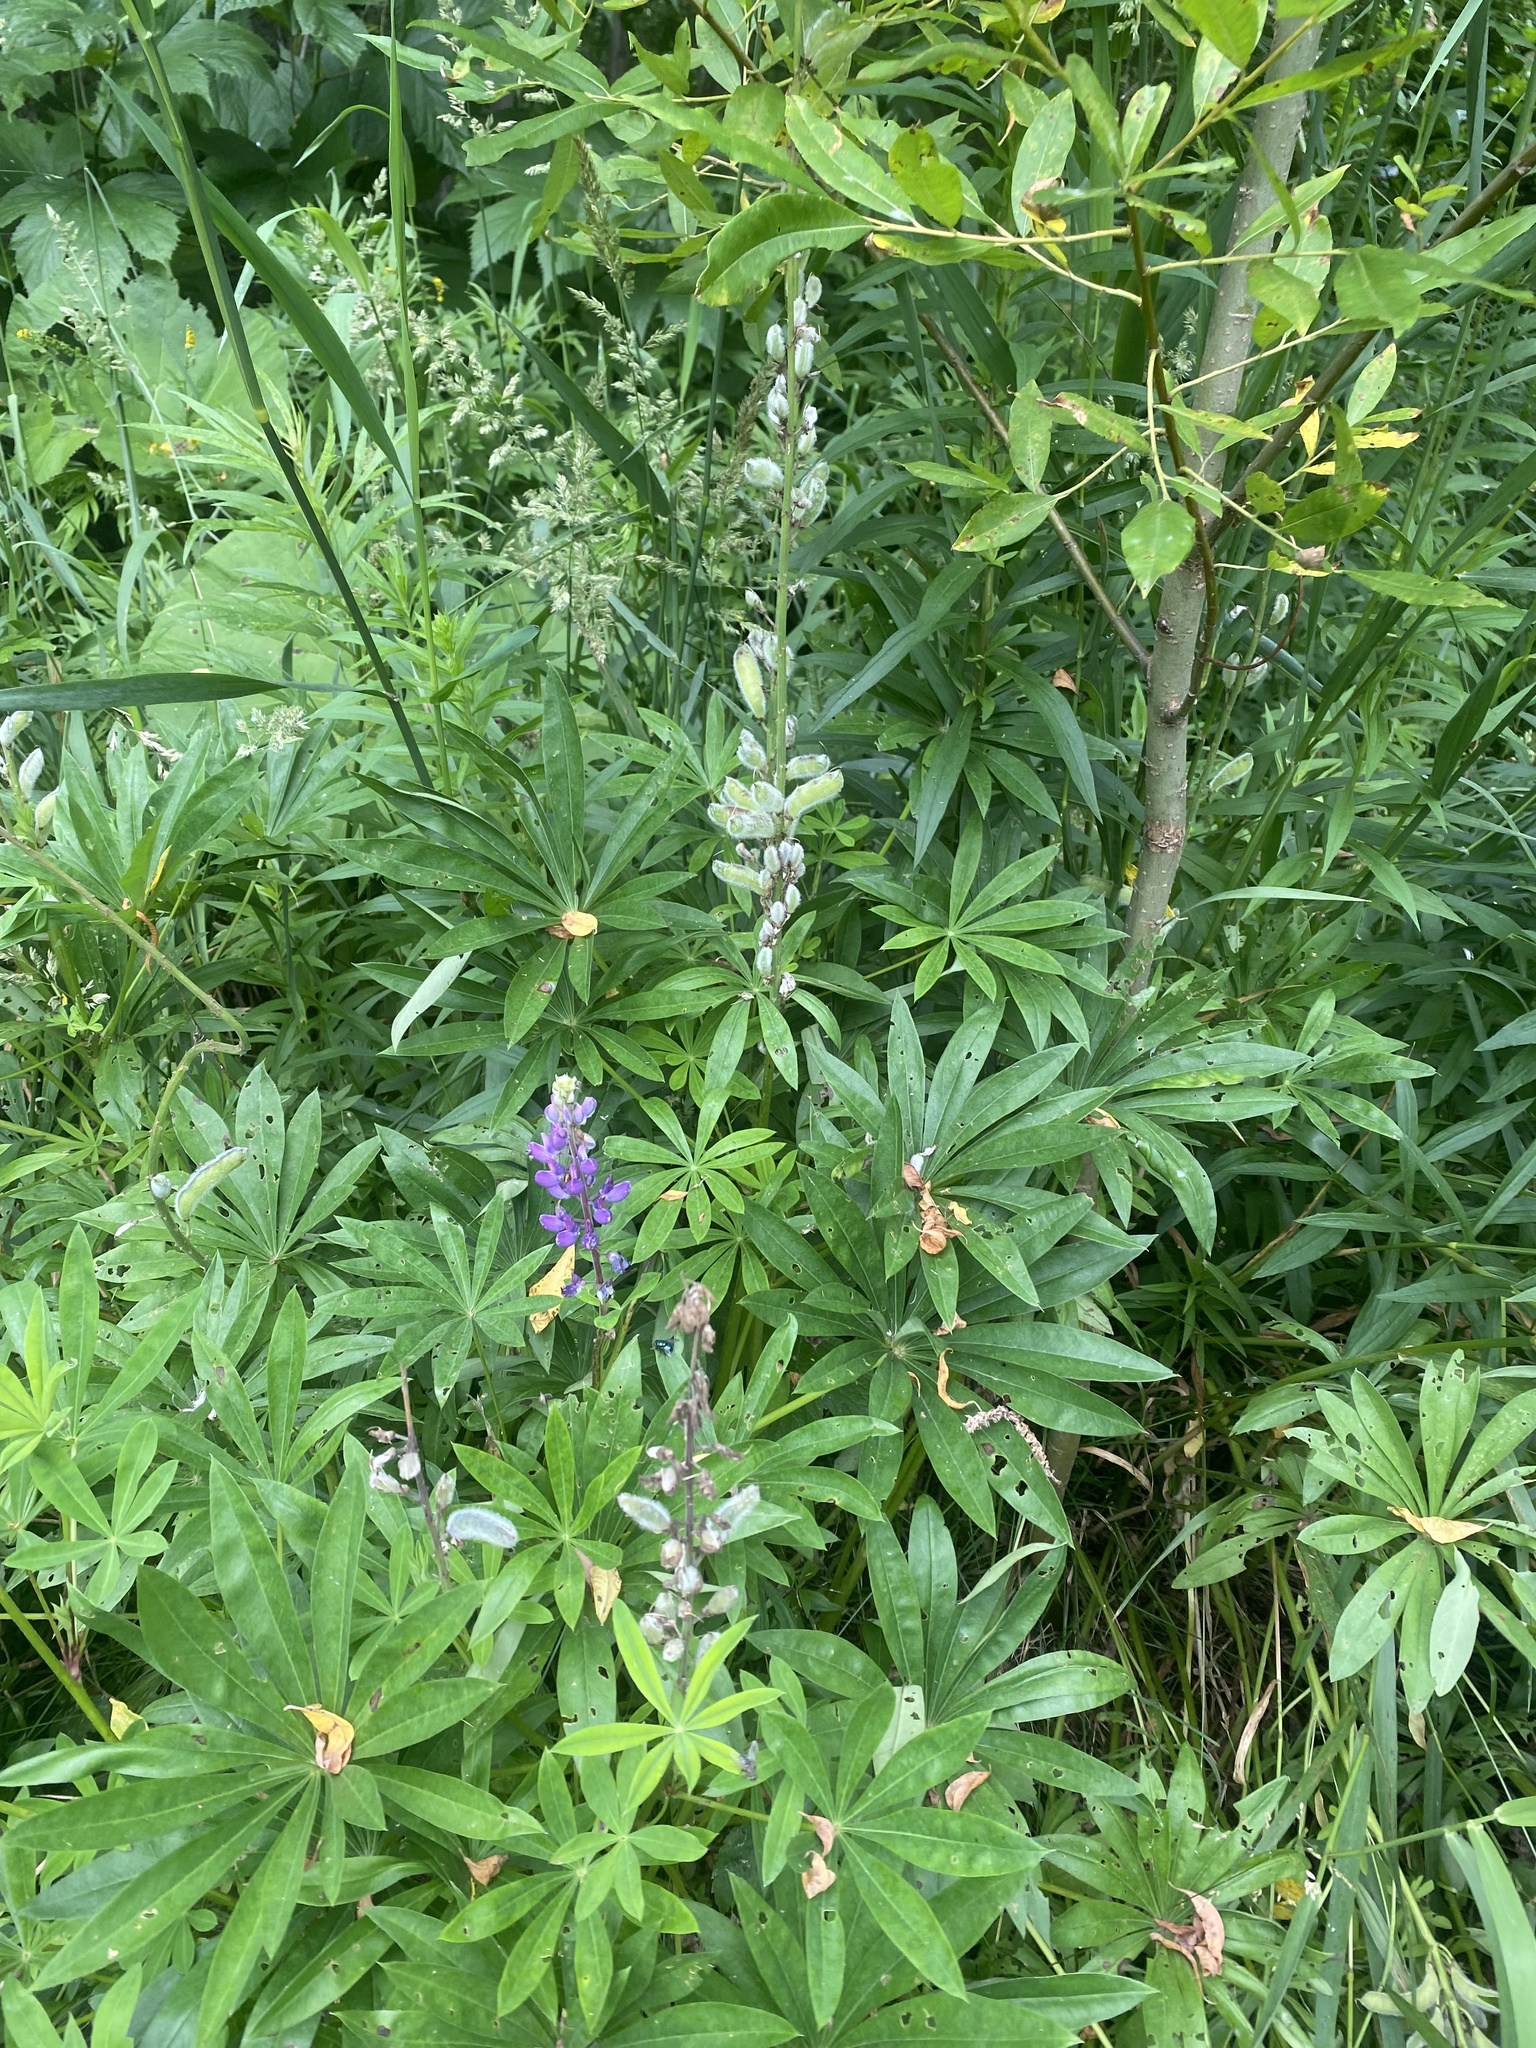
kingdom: Plantae
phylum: Tracheophyta
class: Magnoliopsida
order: Fabales
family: Fabaceae
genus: Lupinus
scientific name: Lupinus polyphyllus
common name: Garden lupin
